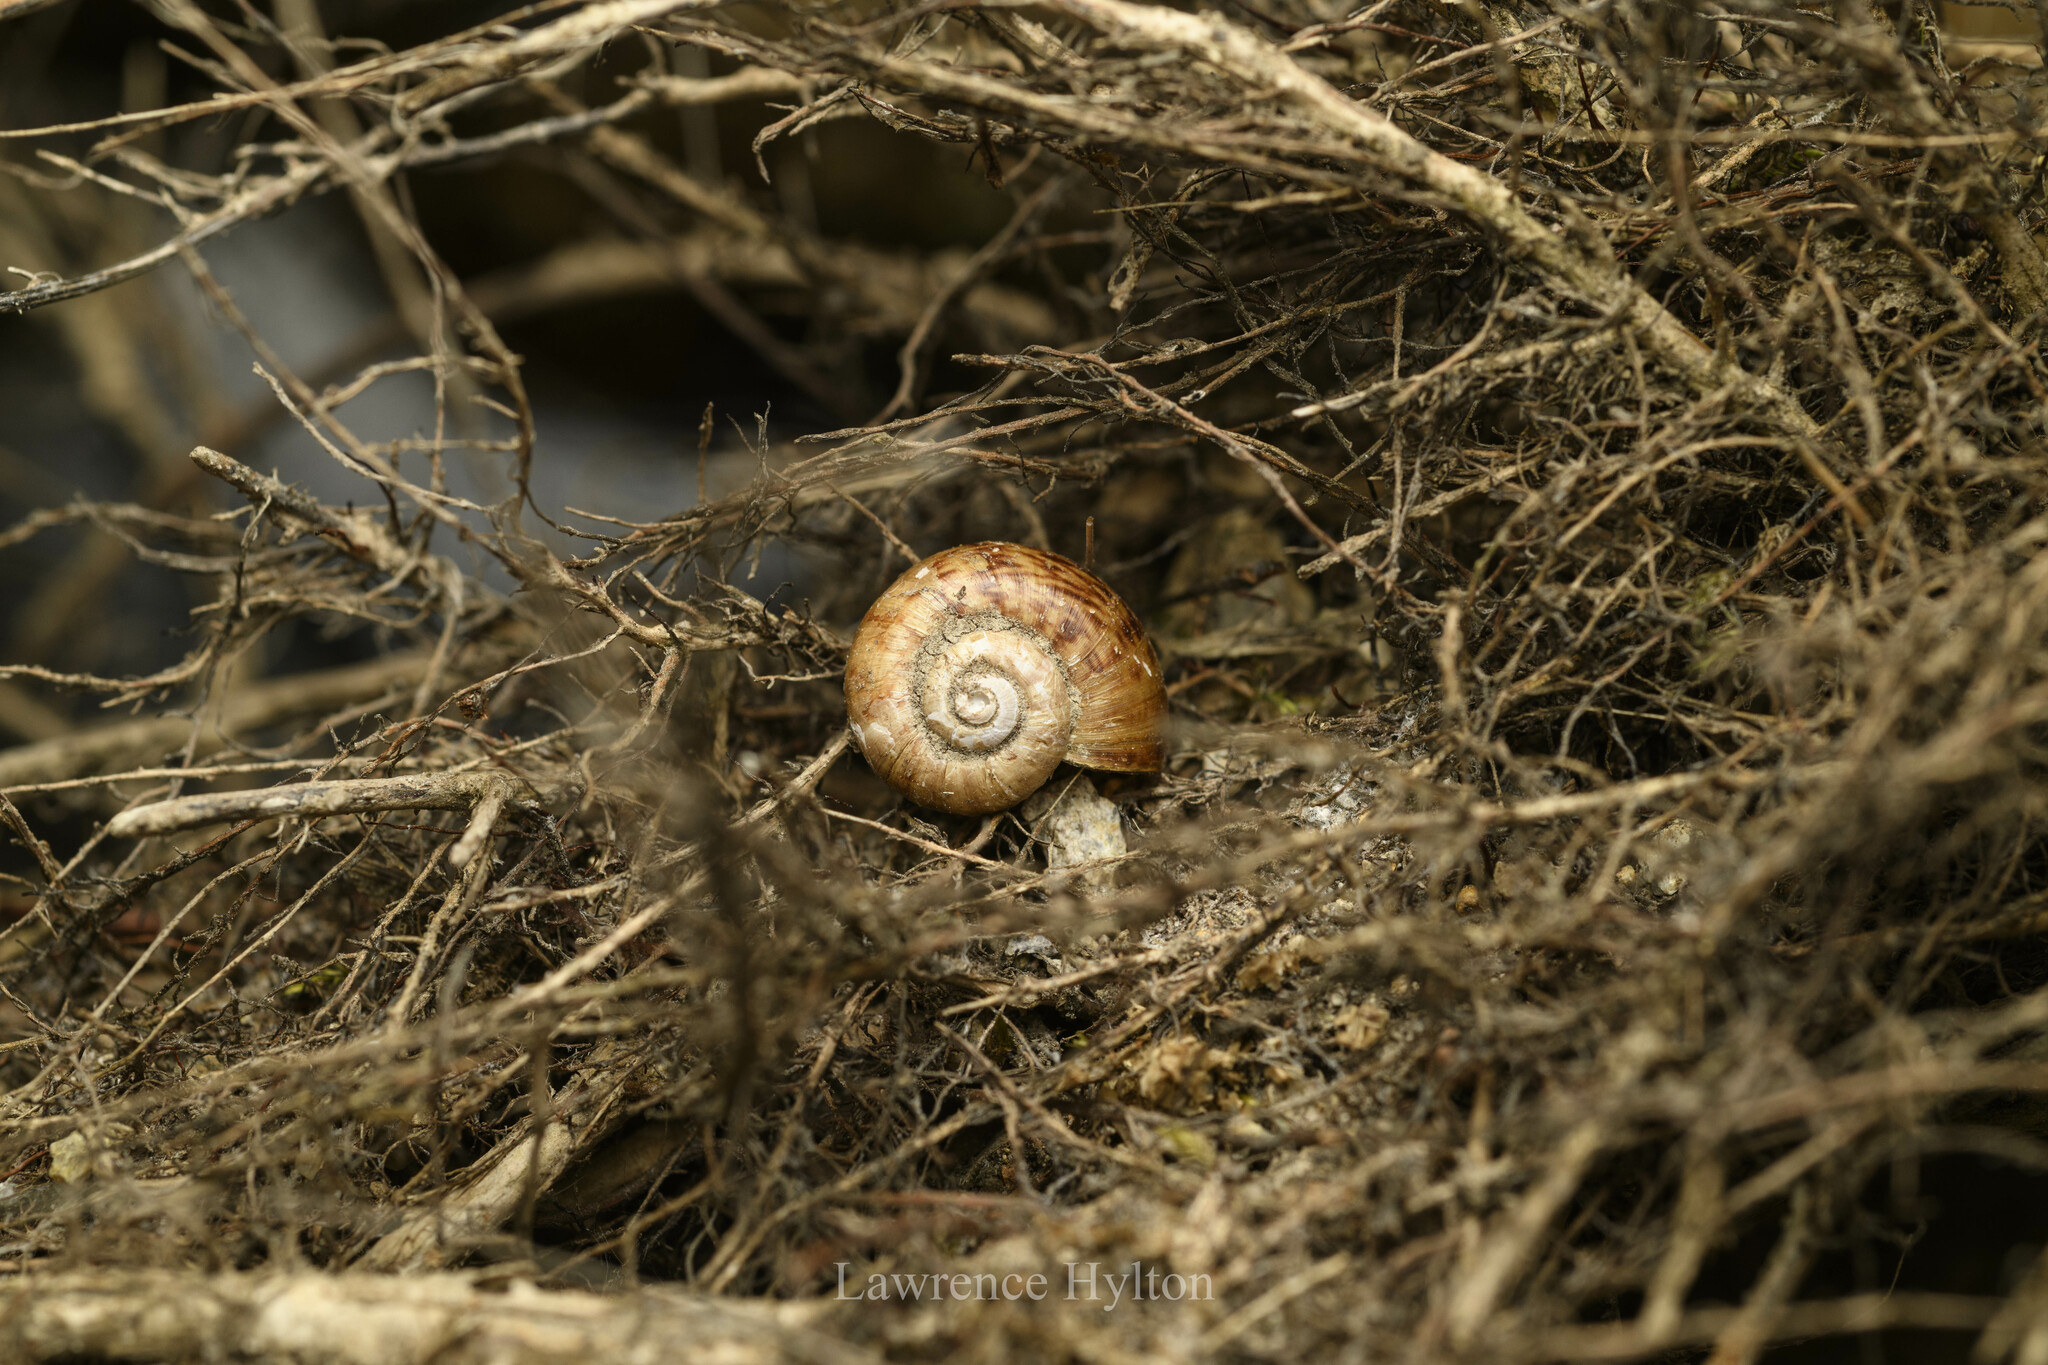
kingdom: Animalia
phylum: Mollusca
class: Gastropoda
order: Architaenioglossa
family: Cyclophoridae
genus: Cyclotus
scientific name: Cyclotus chinensis
